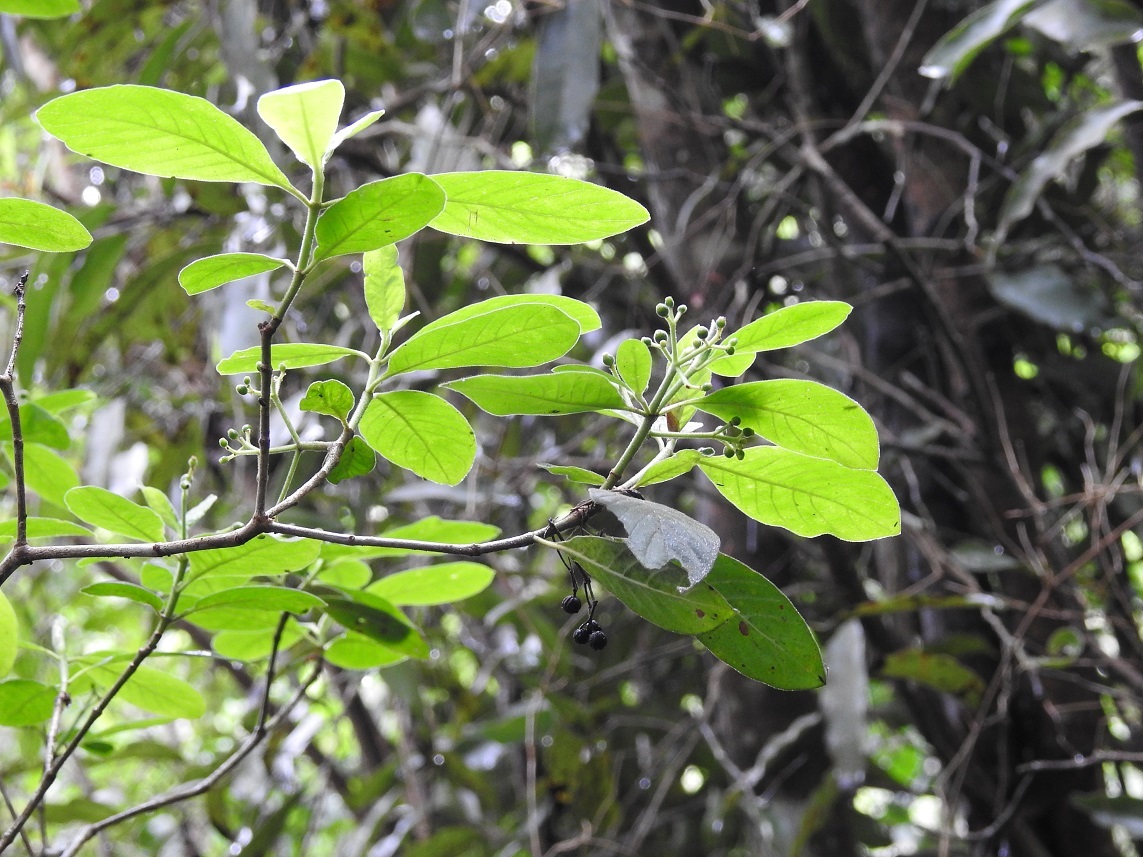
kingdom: Plantae
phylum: Tracheophyta
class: Magnoliopsida
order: Gentianales
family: Rubiaceae
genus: Psychotria
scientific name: Psychotria erythrocarpa
